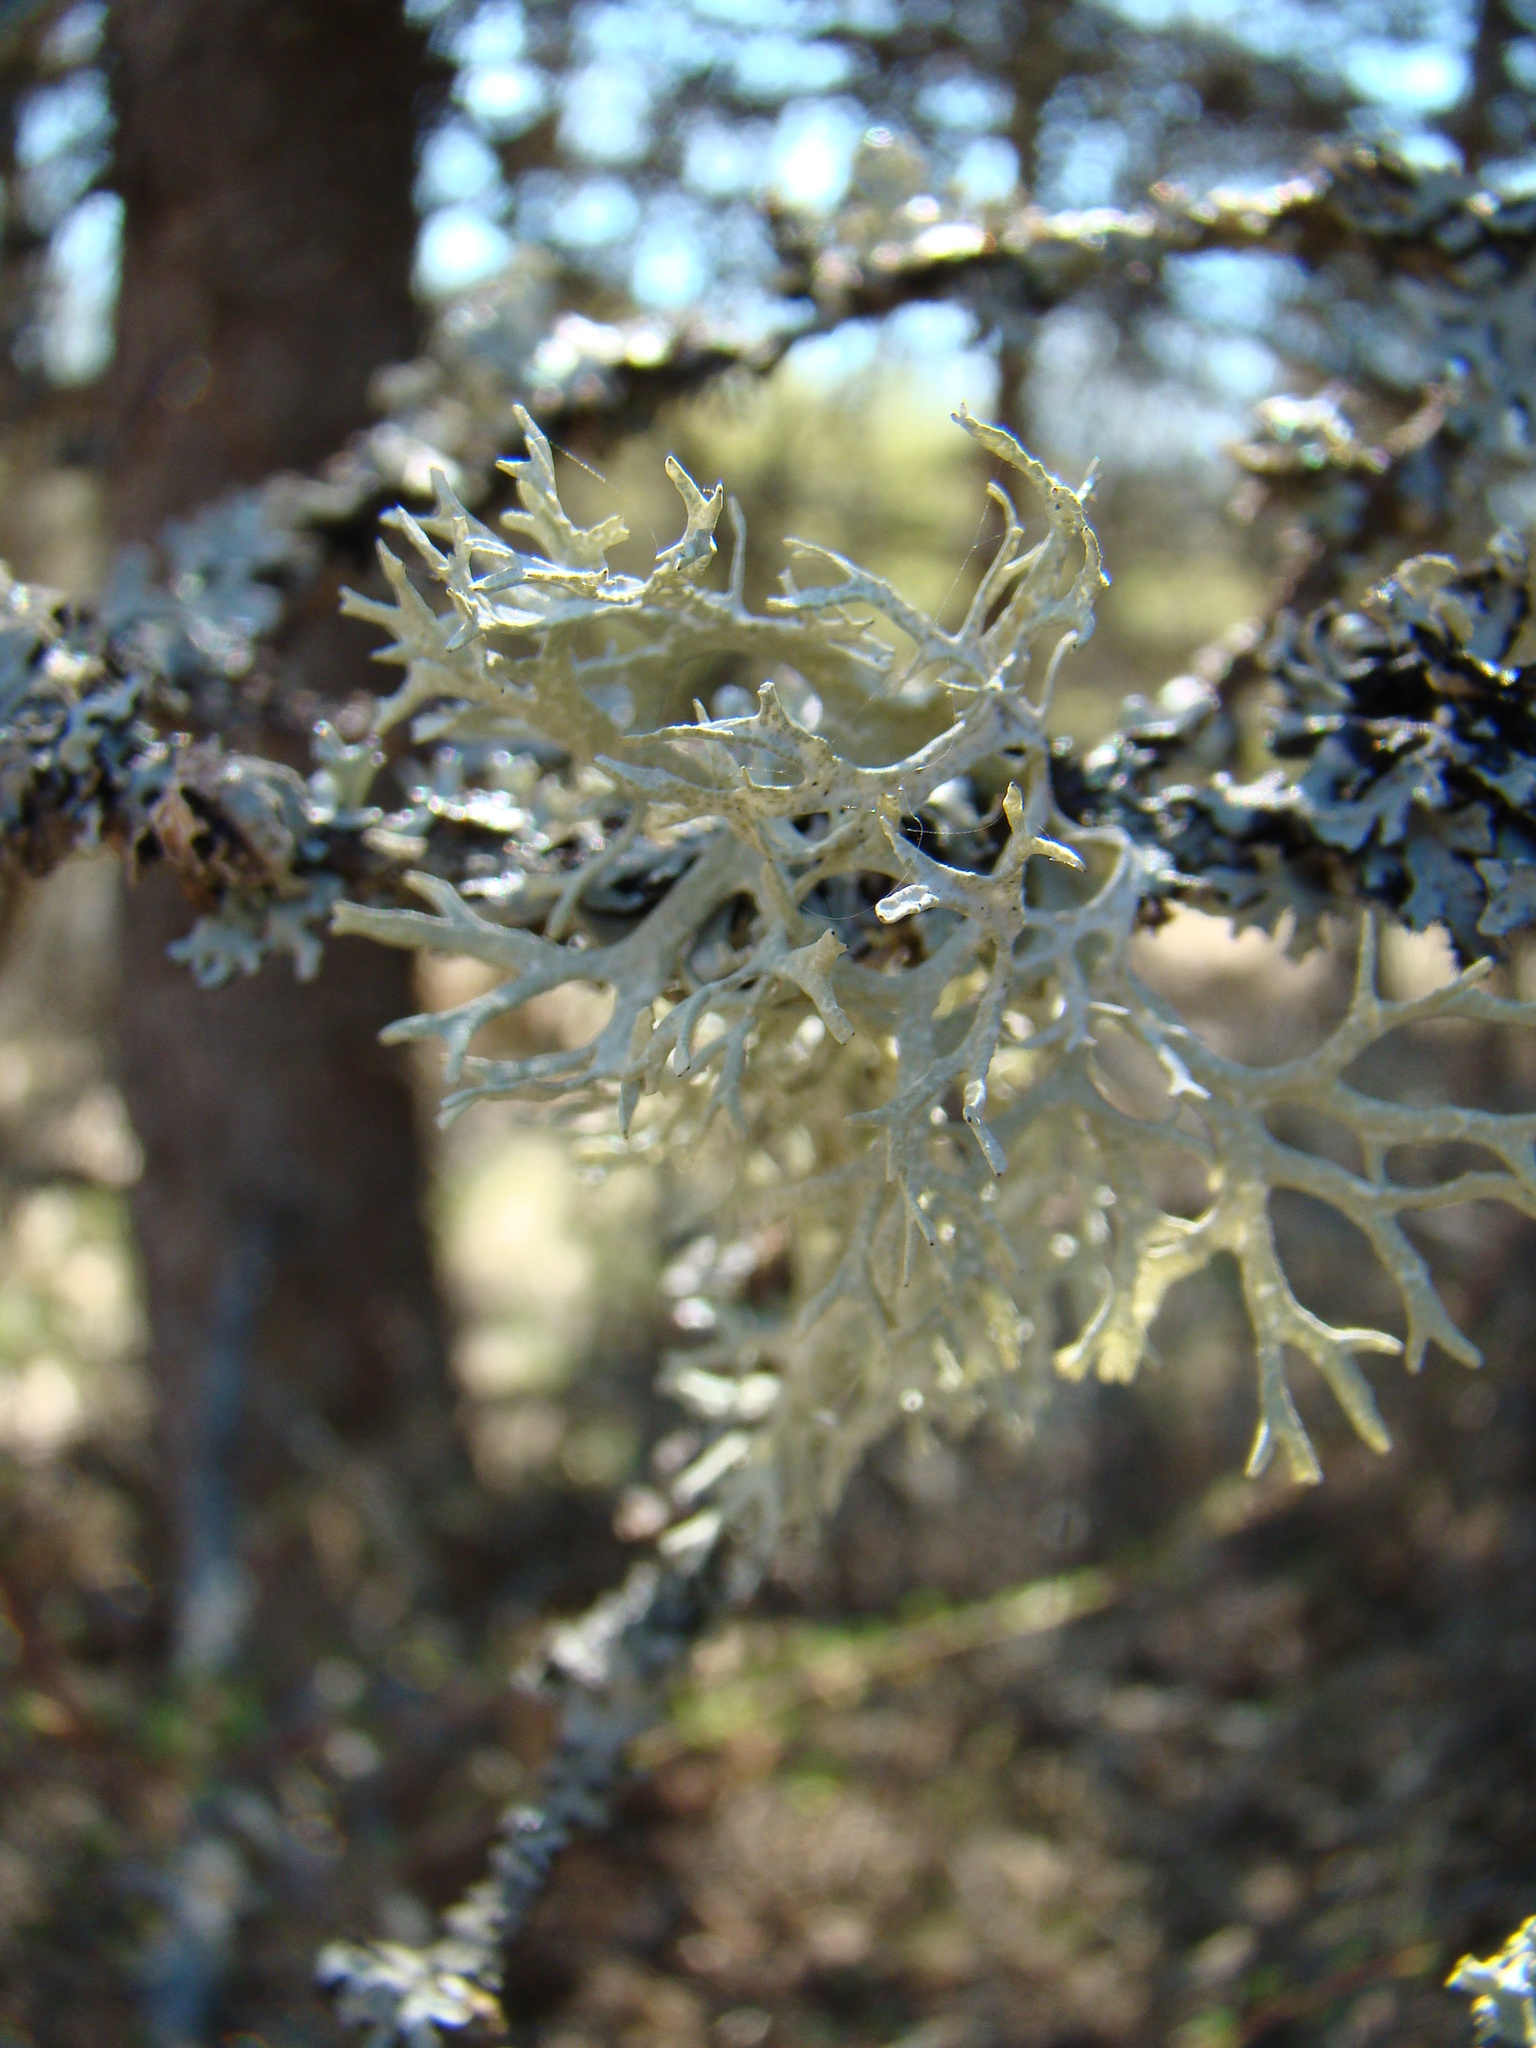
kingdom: Fungi
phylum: Ascomycota
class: Lecanoromycetes
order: Lecanorales
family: Parmeliaceae
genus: Evernia
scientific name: Evernia prunastri
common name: Oak moss
